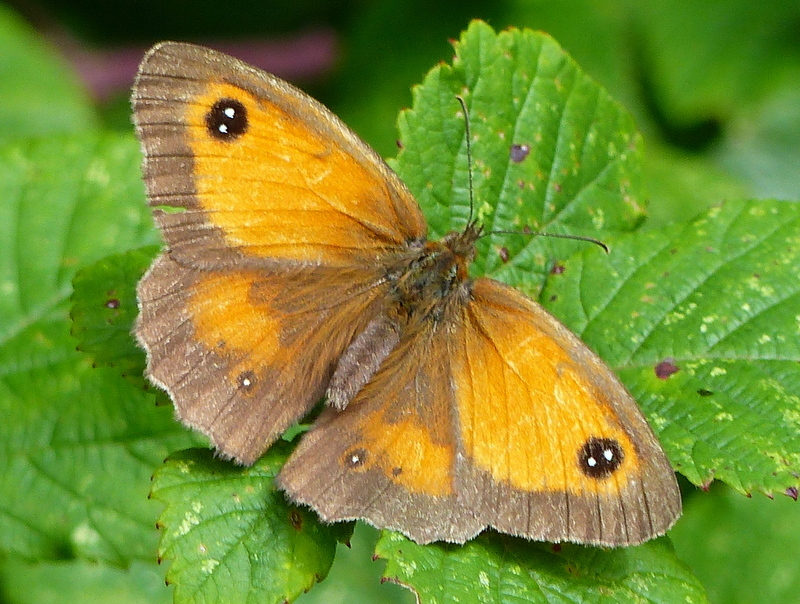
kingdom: Animalia
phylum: Arthropoda
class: Insecta
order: Lepidoptera
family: Nymphalidae
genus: Pyronia
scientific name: Pyronia tithonus
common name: Gatekeeper
